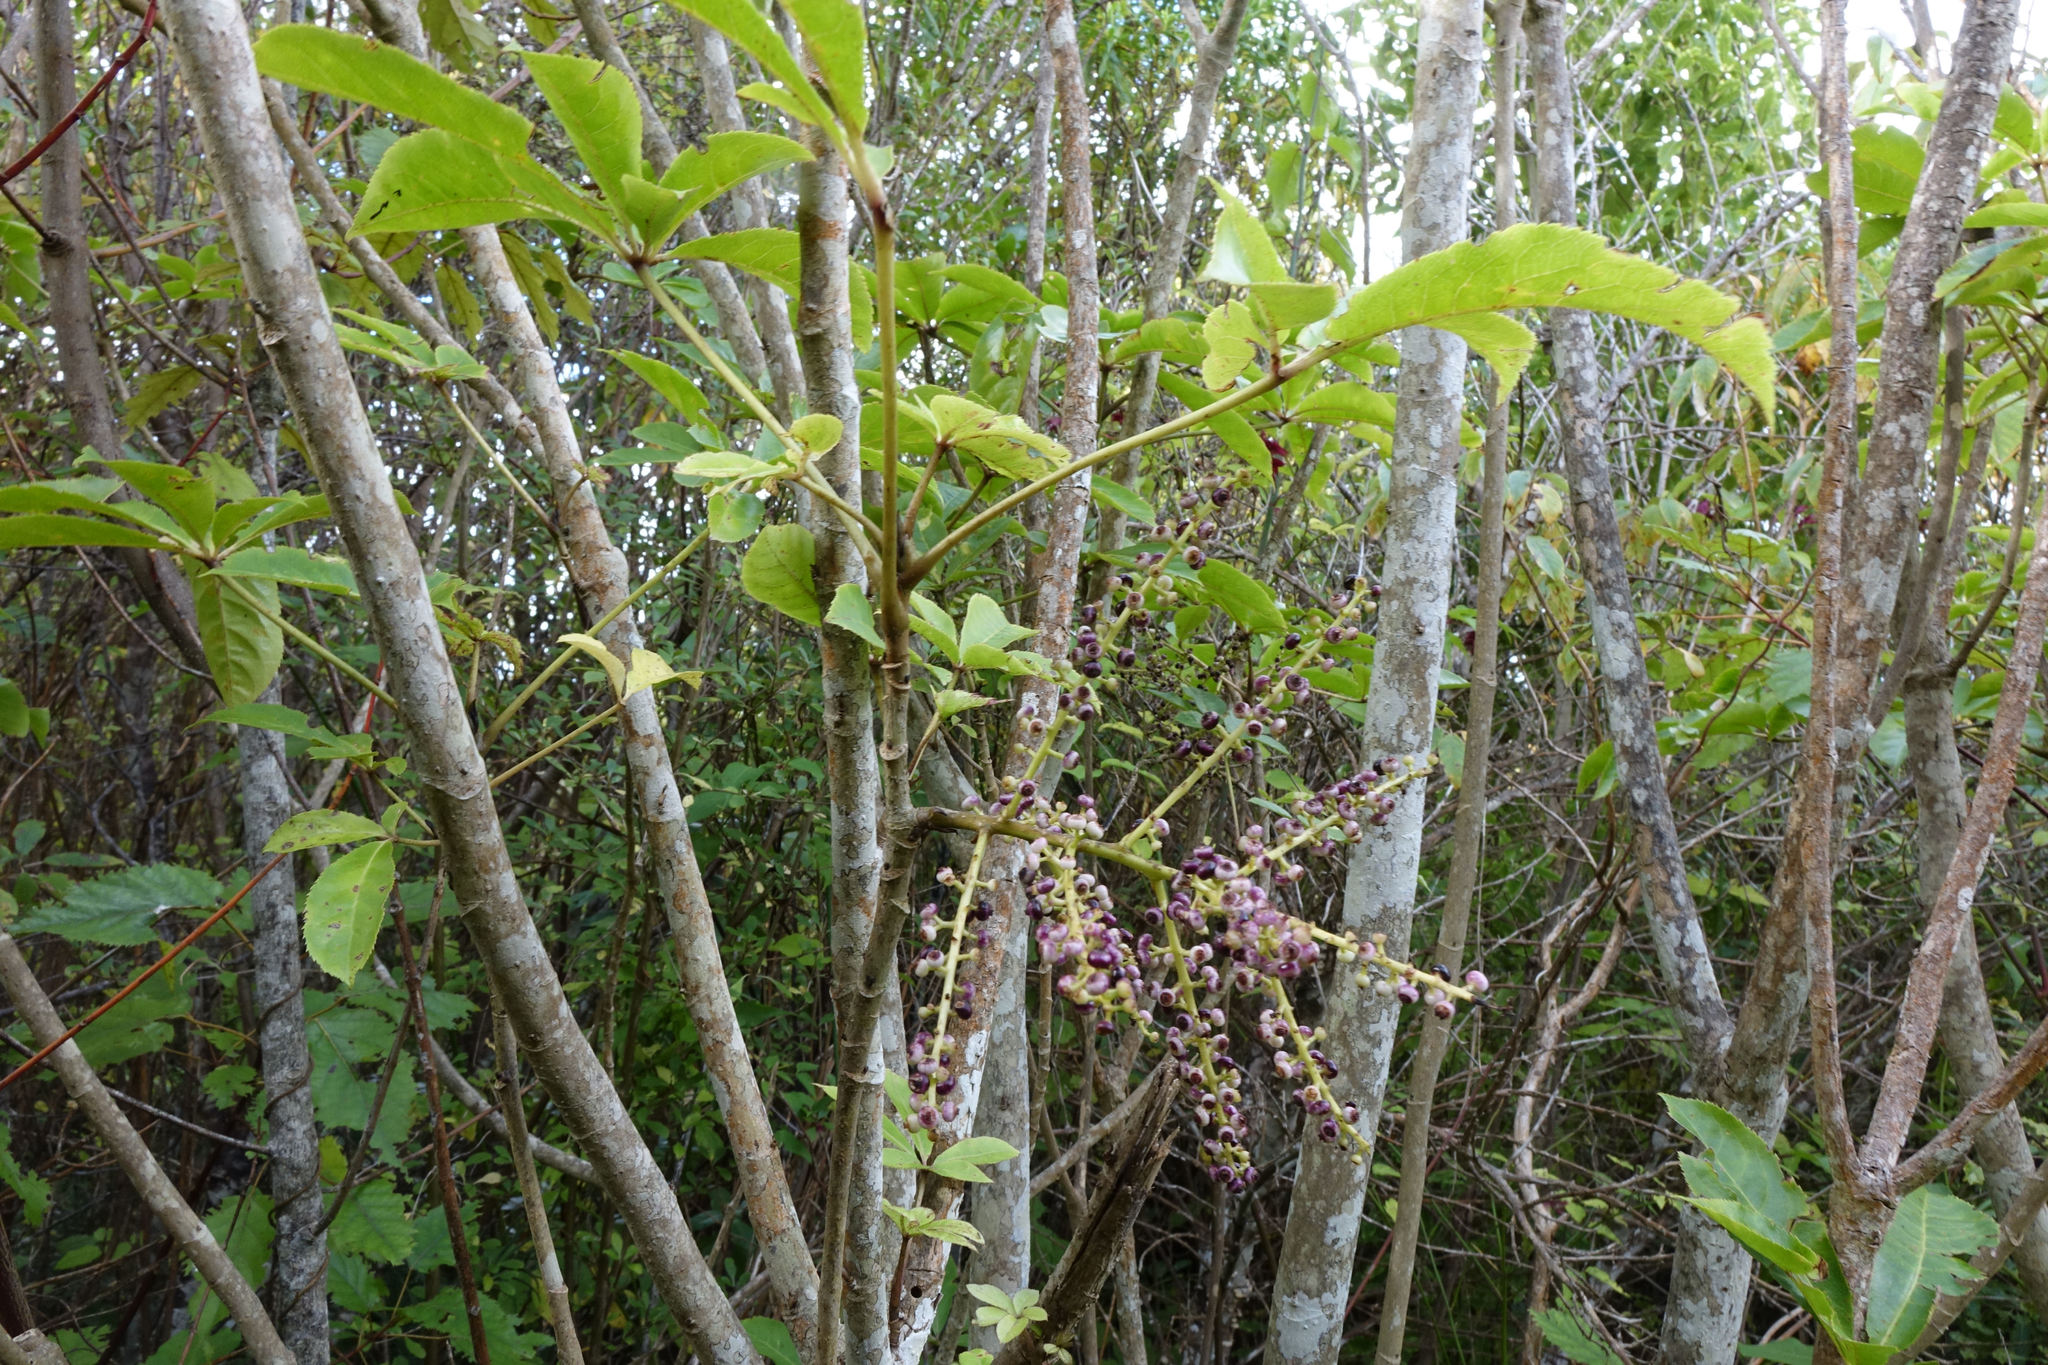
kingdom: Plantae
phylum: Tracheophyta
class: Magnoliopsida
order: Apiales
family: Araliaceae
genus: Schefflera
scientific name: Schefflera digitata
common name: Pate
